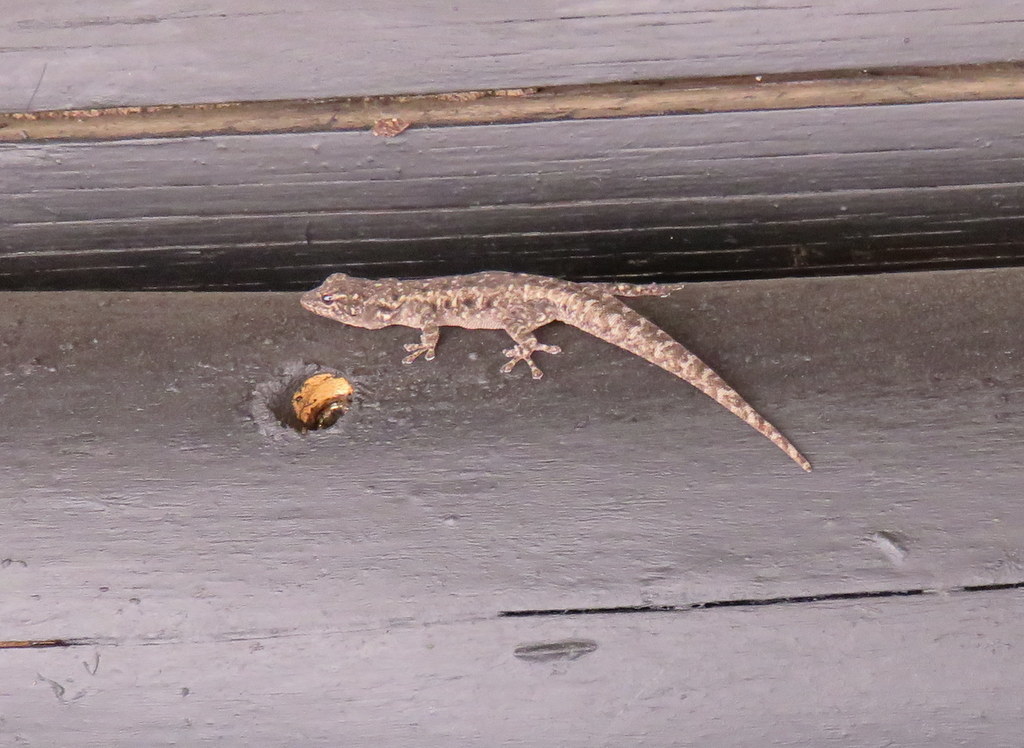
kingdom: Animalia
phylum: Chordata
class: Squamata
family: Gekkonidae
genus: Lygodactylus
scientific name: Lygodactylus stevensoni
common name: Stevenson's dwarf gecko
